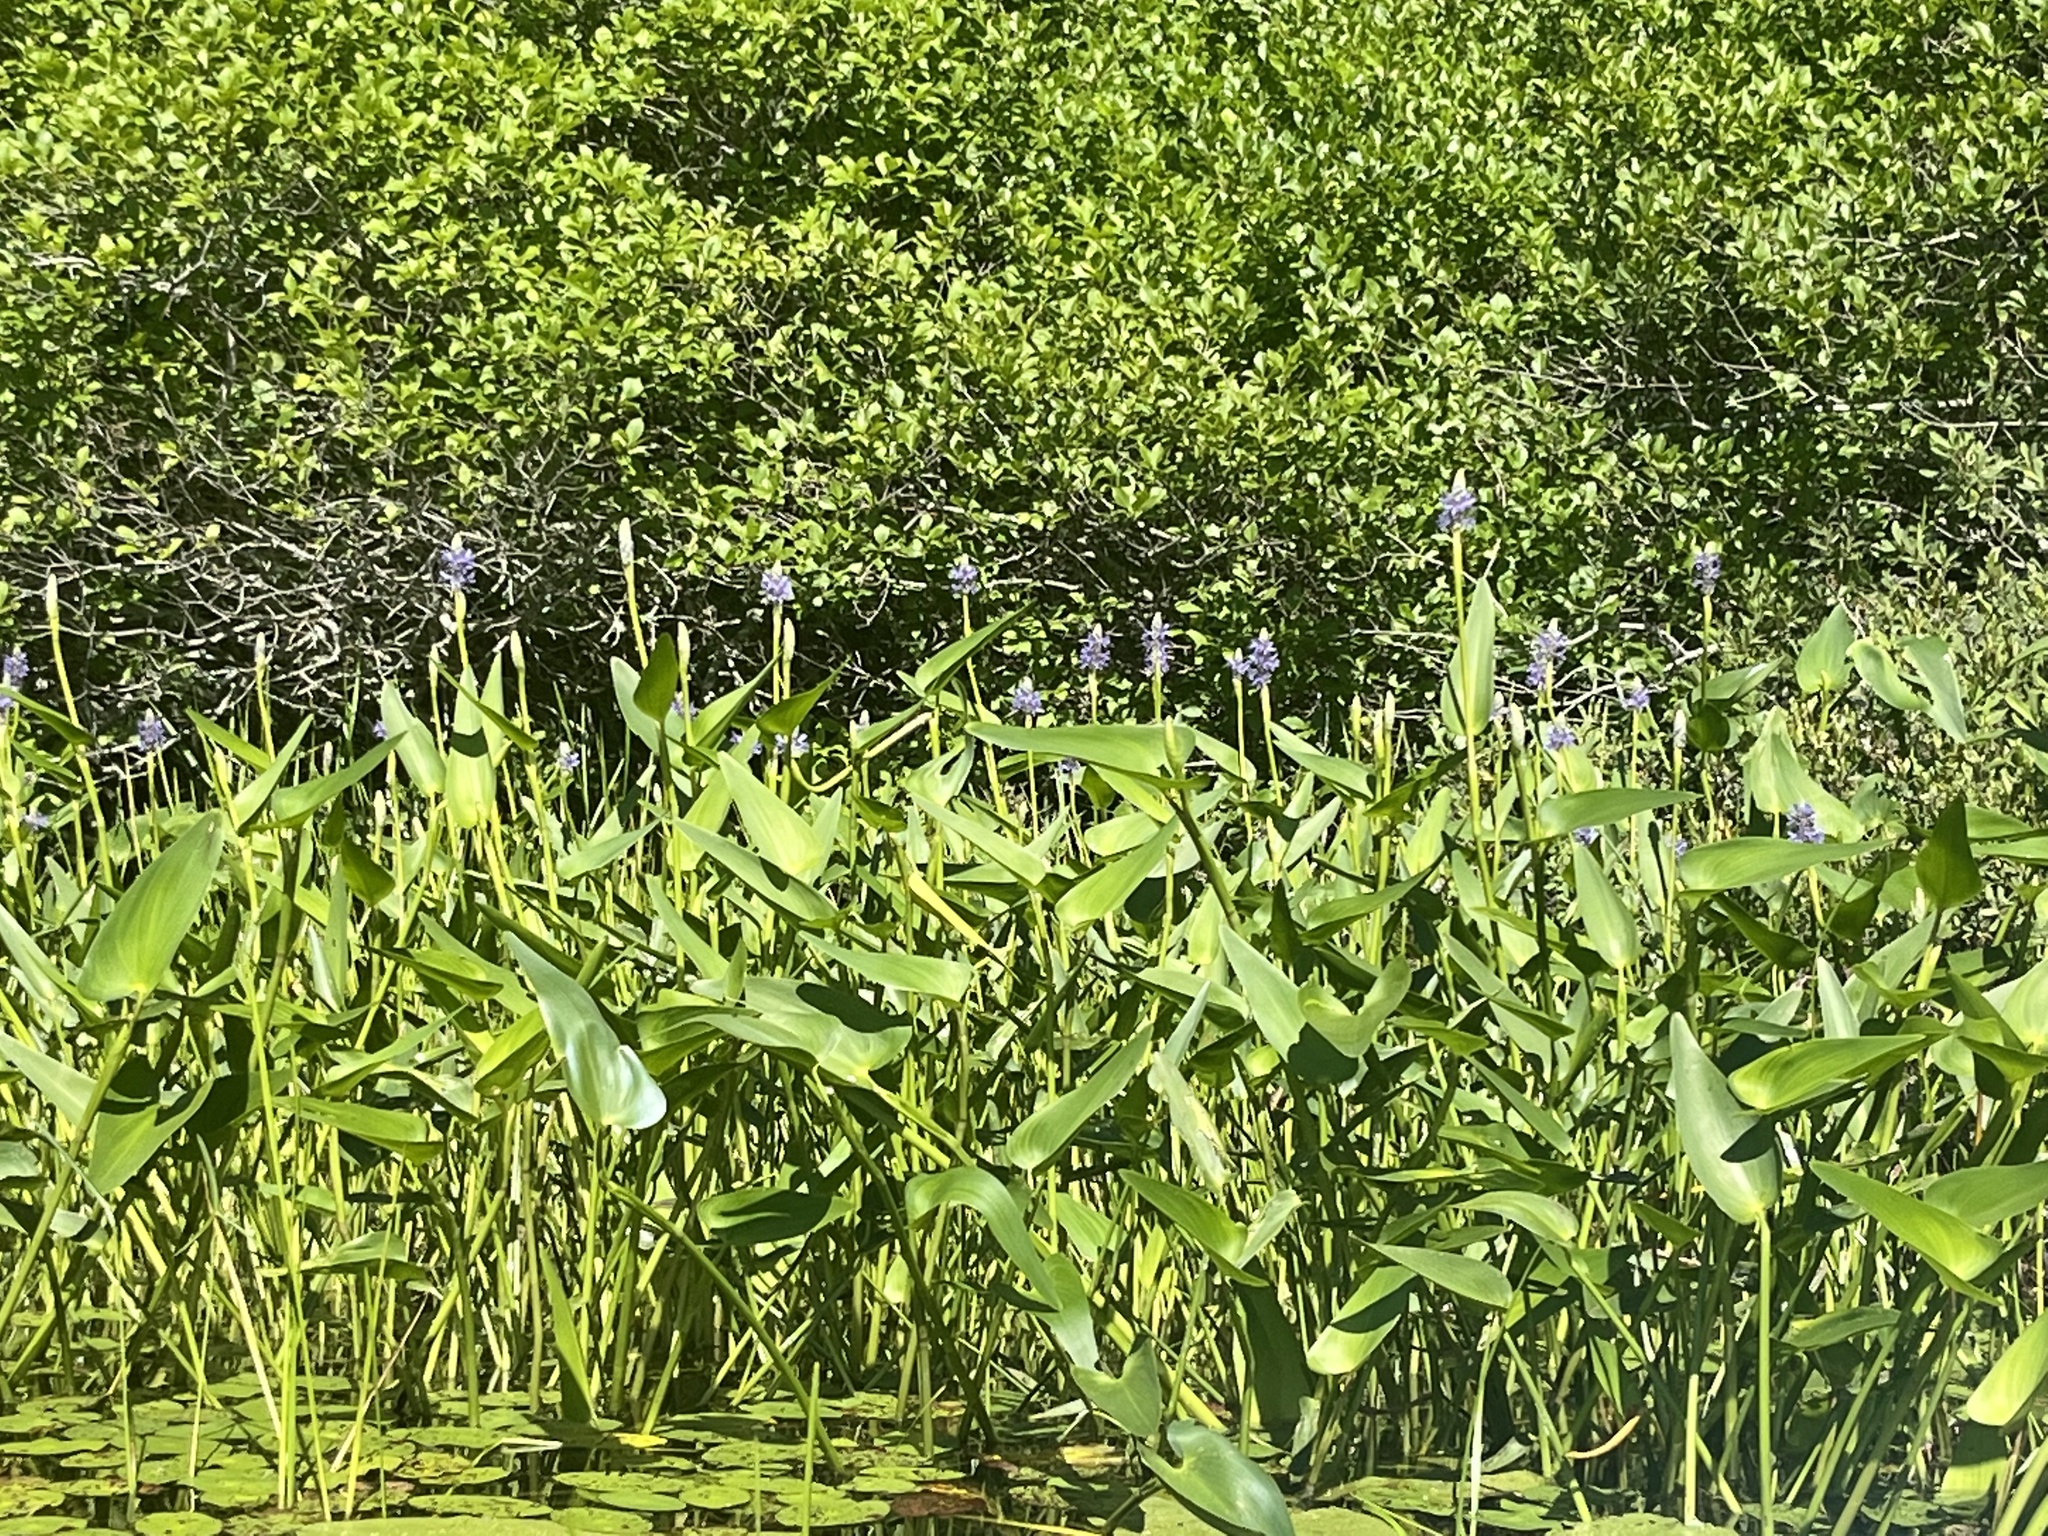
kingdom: Plantae
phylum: Tracheophyta
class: Liliopsida
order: Commelinales
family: Pontederiaceae
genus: Pontederia
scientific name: Pontederia cordata
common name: Pickerelweed
